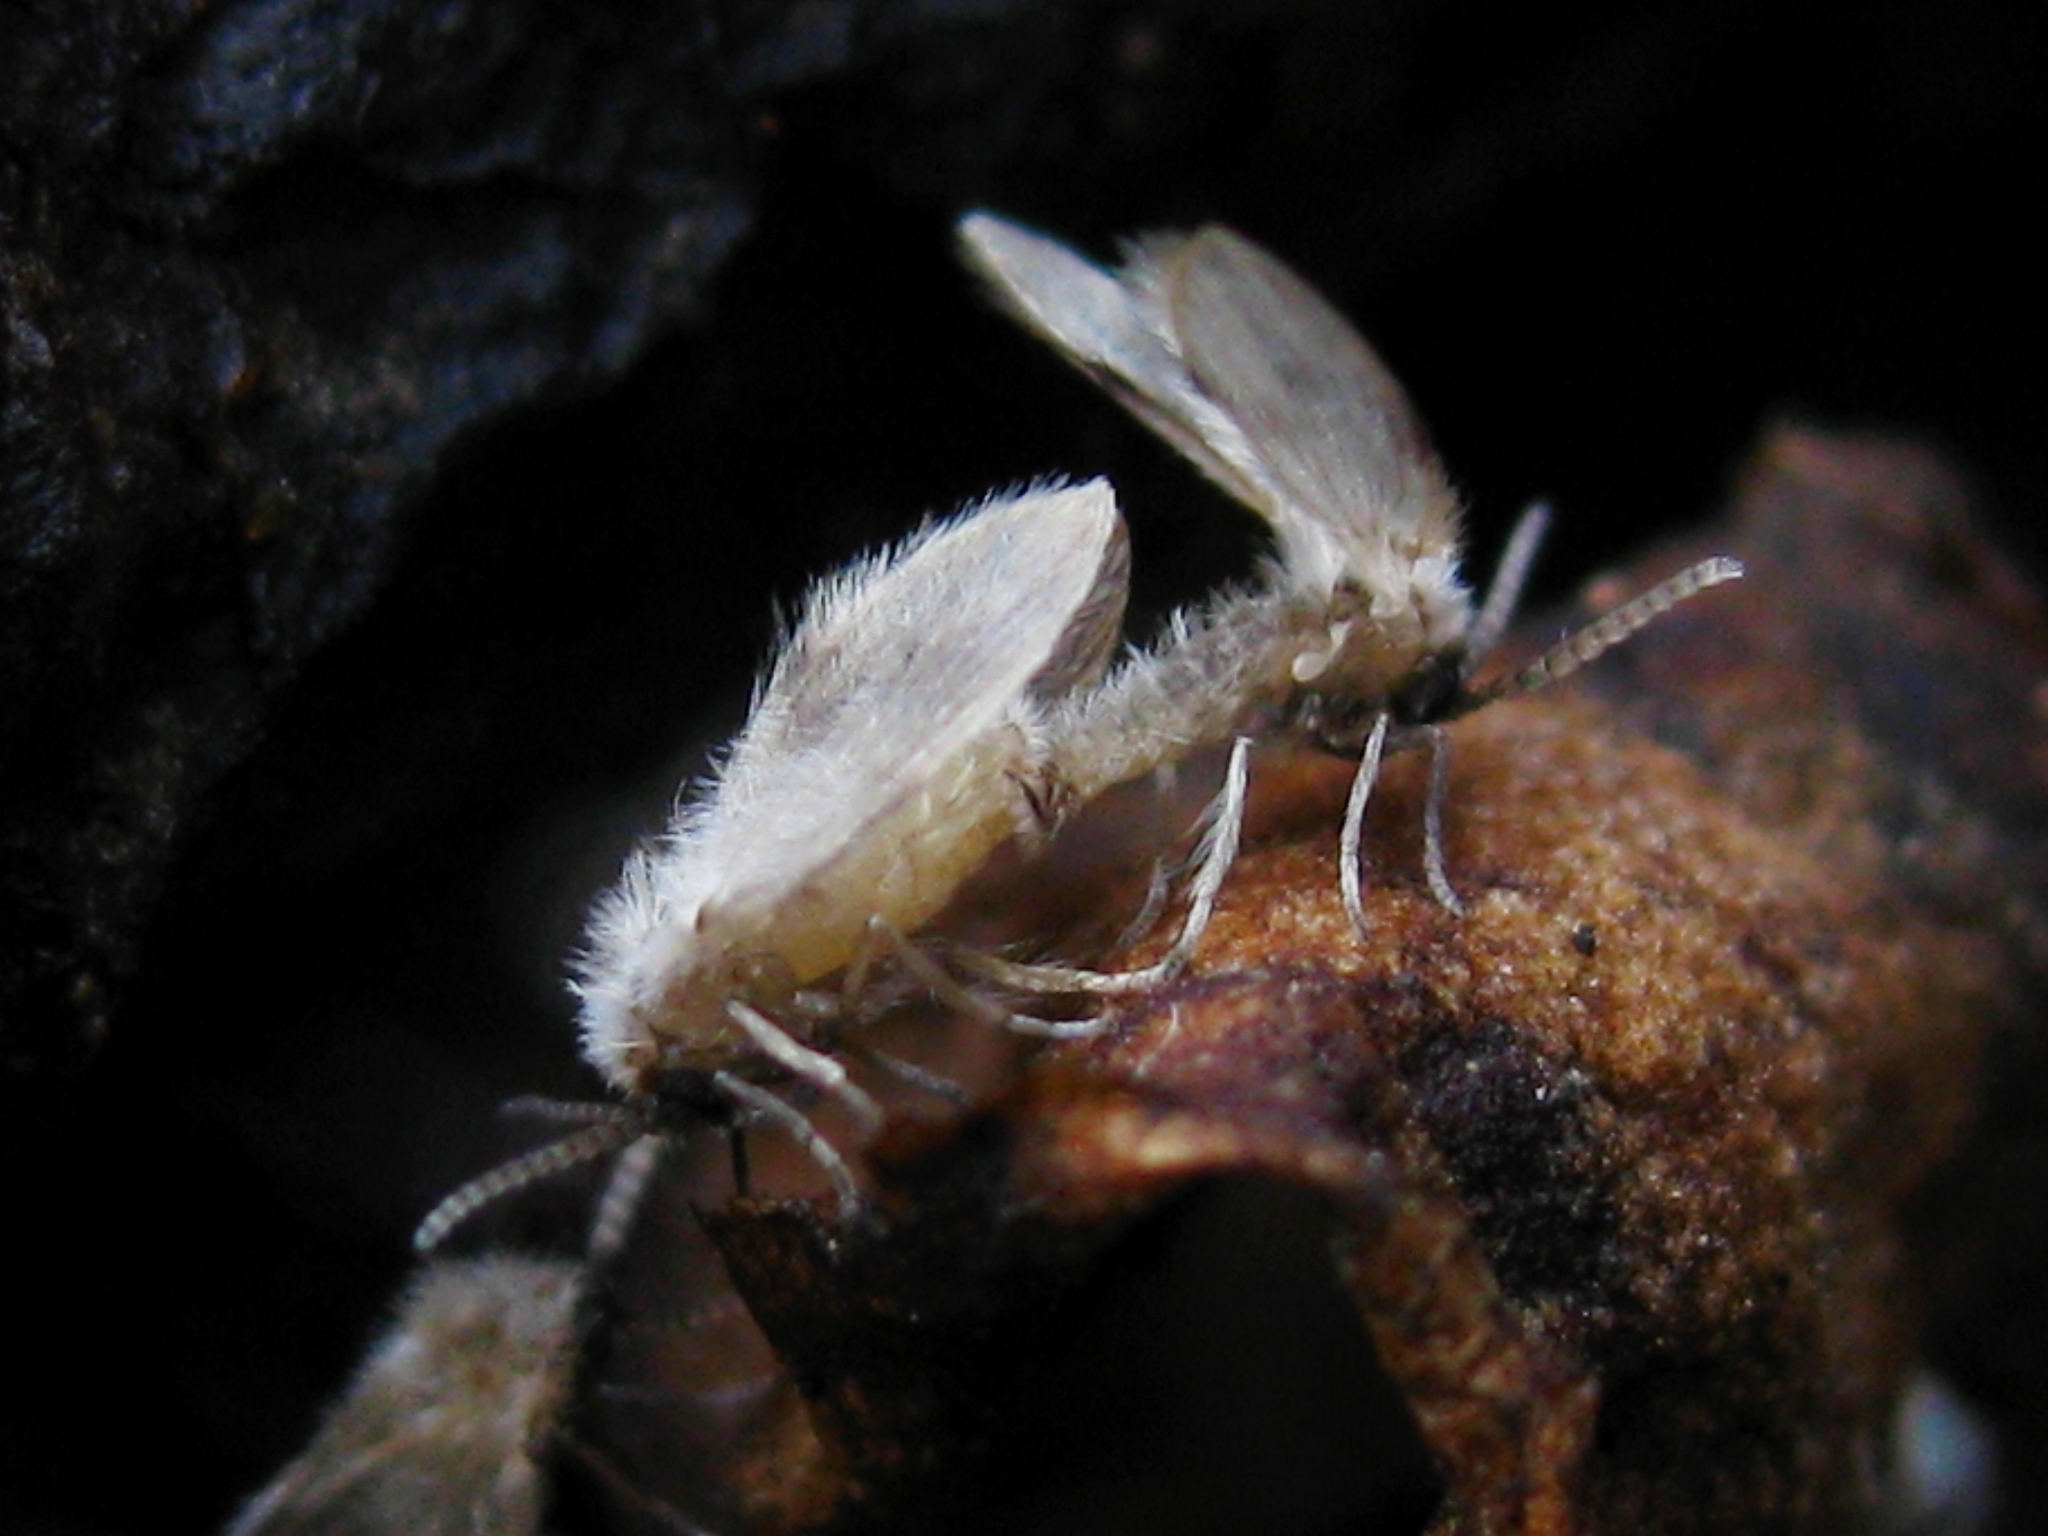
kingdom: Animalia
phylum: Arthropoda
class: Insecta
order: Diptera
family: Psychodidae
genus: Psychoda
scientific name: Psychoda sigma
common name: Moth fly
